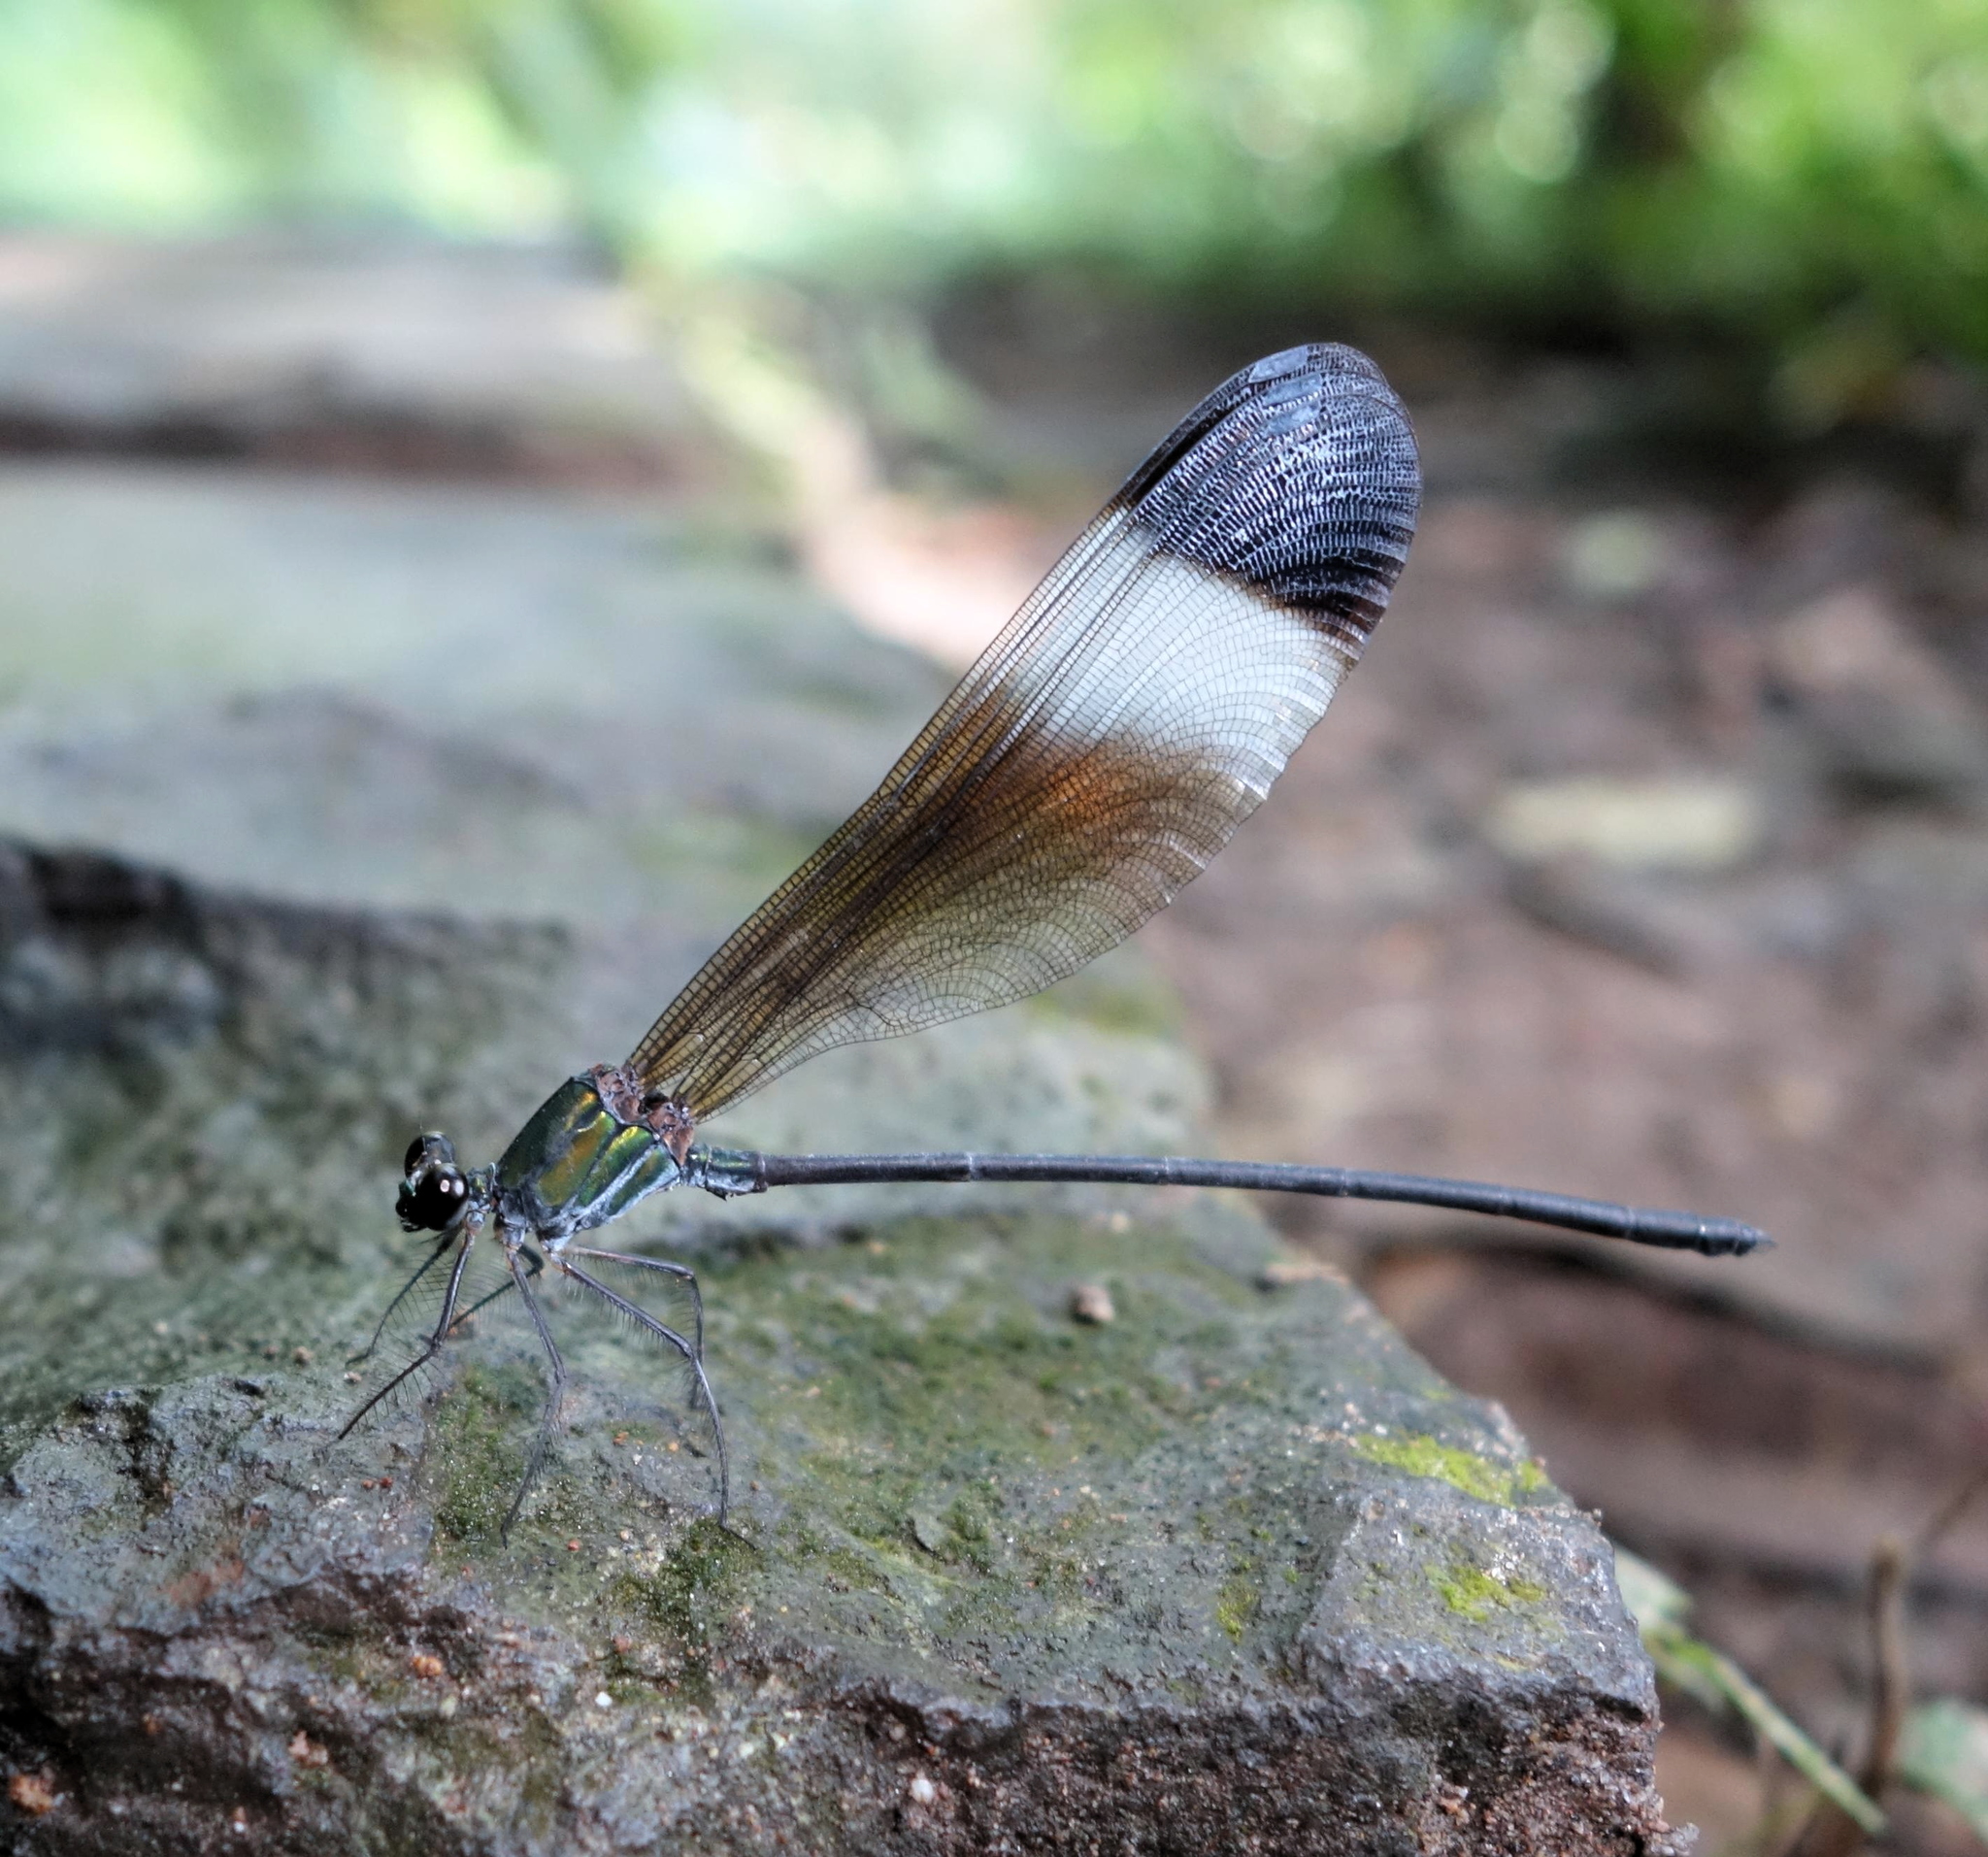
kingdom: Animalia
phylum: Arthropoda
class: Insecta
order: Odonata
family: Calopterygidae
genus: Psolodesmus
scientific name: Psolodesmus mandarinus
